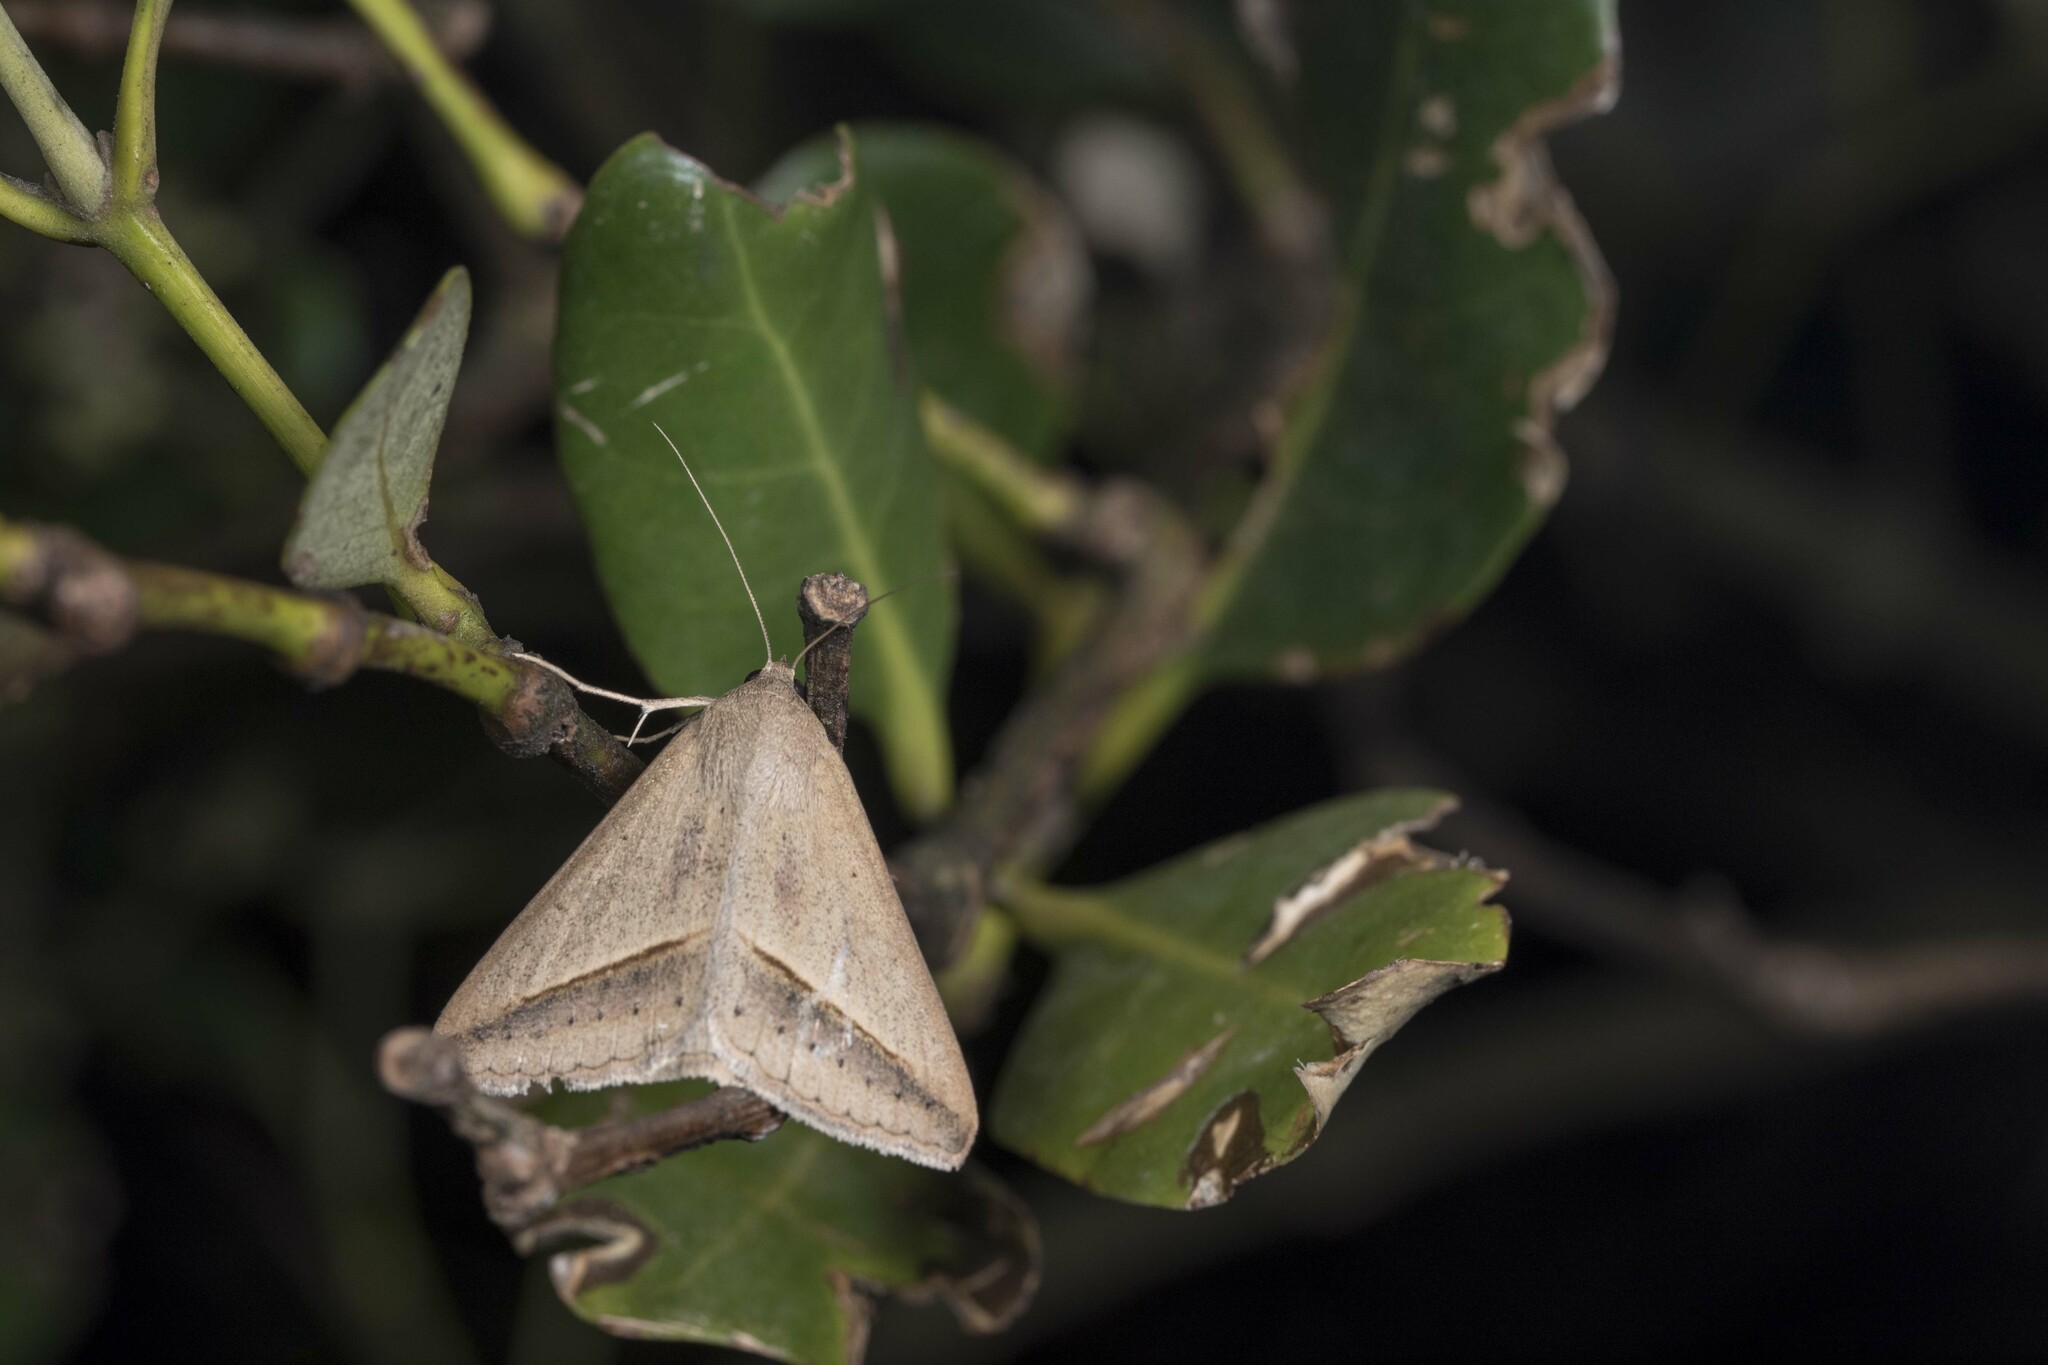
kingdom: Animalia
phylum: Arthropoda
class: Insecta
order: Lepidoptera
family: Erebidae
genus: Mocis
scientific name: Mocis frugalis
